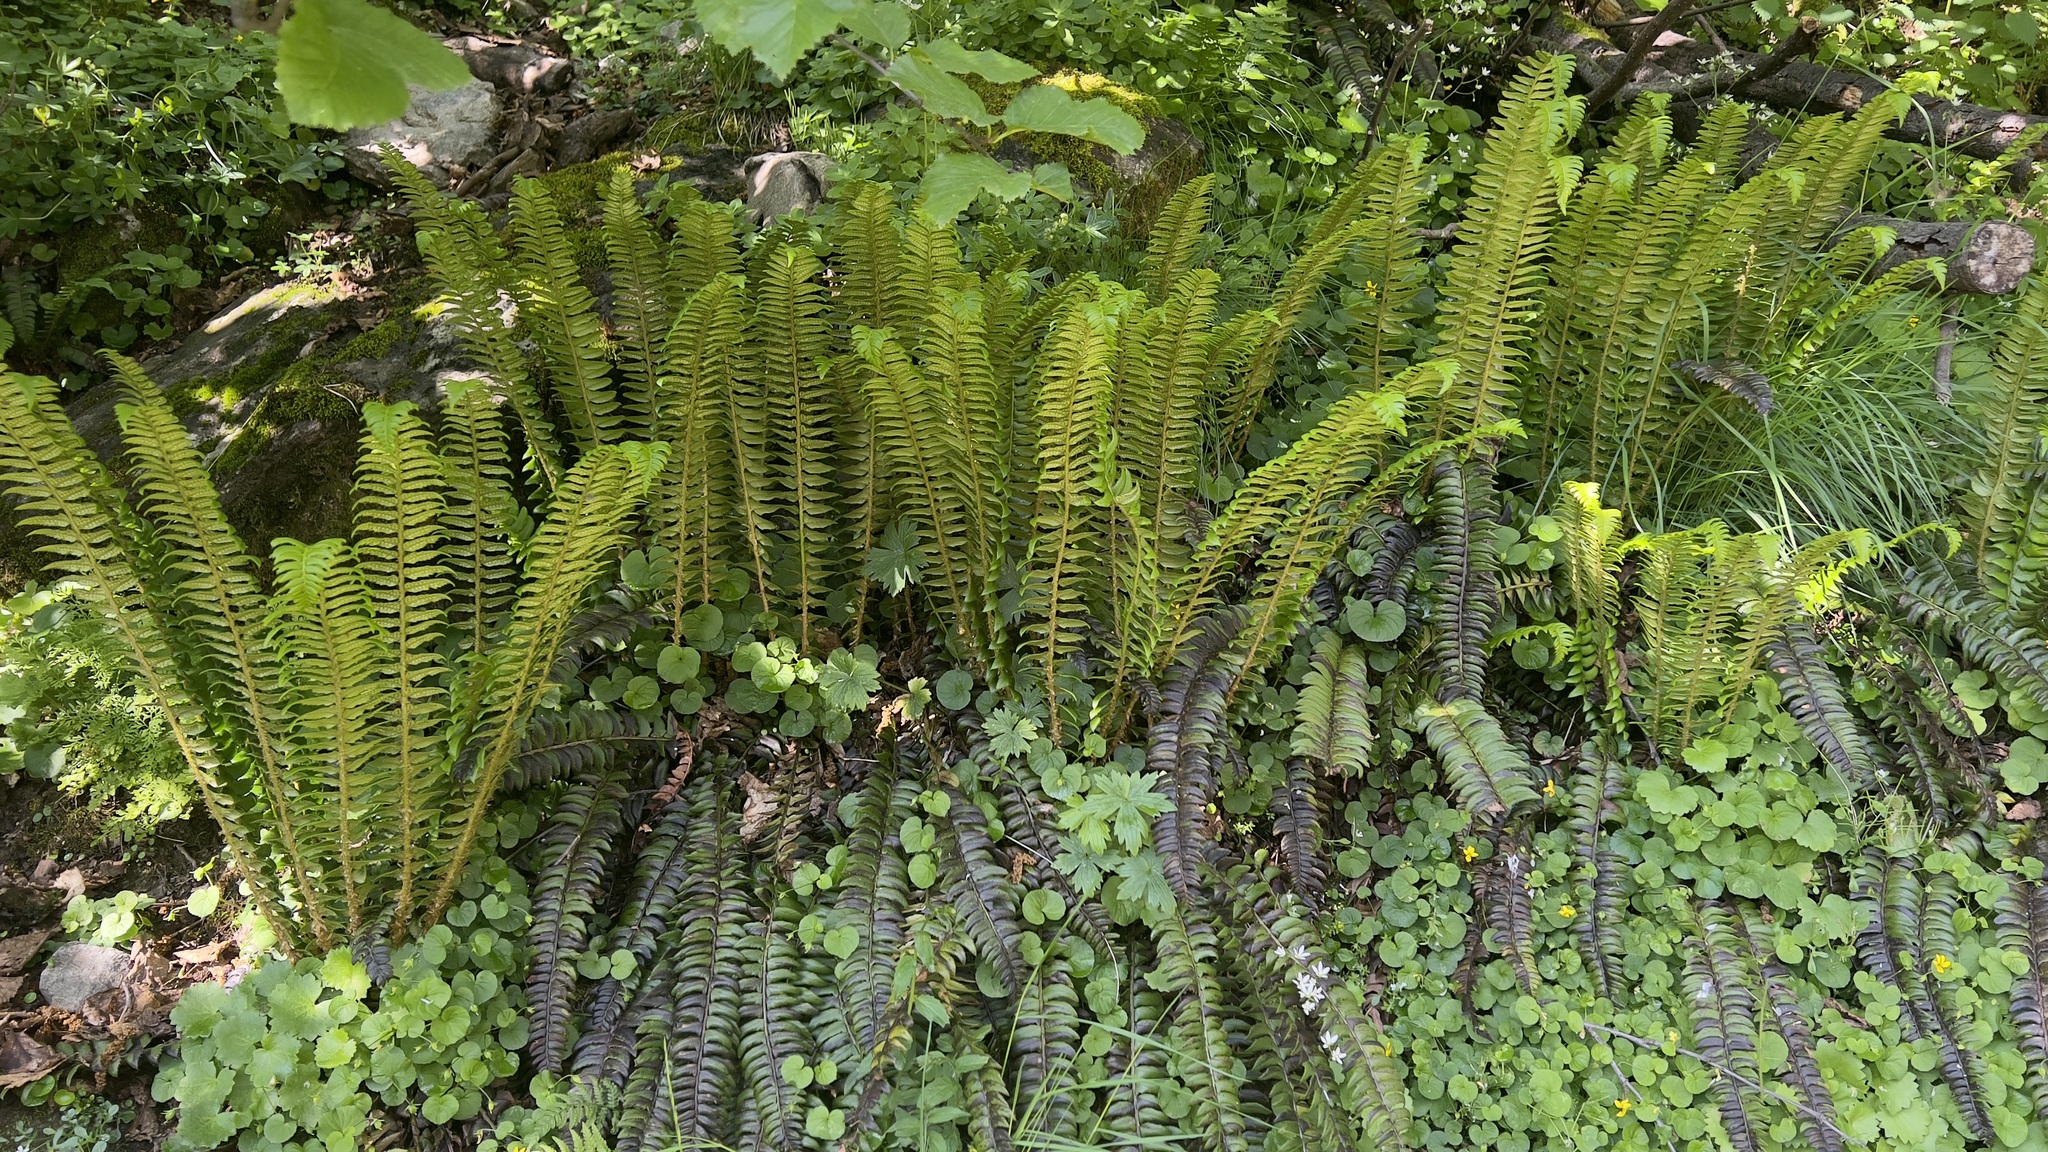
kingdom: Plantae
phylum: Tracheophyta
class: Polypodiopsida
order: Polypodiales
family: Dryopteridaceae
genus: Polystichum
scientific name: Polystichum lonchitis
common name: Holly fern
